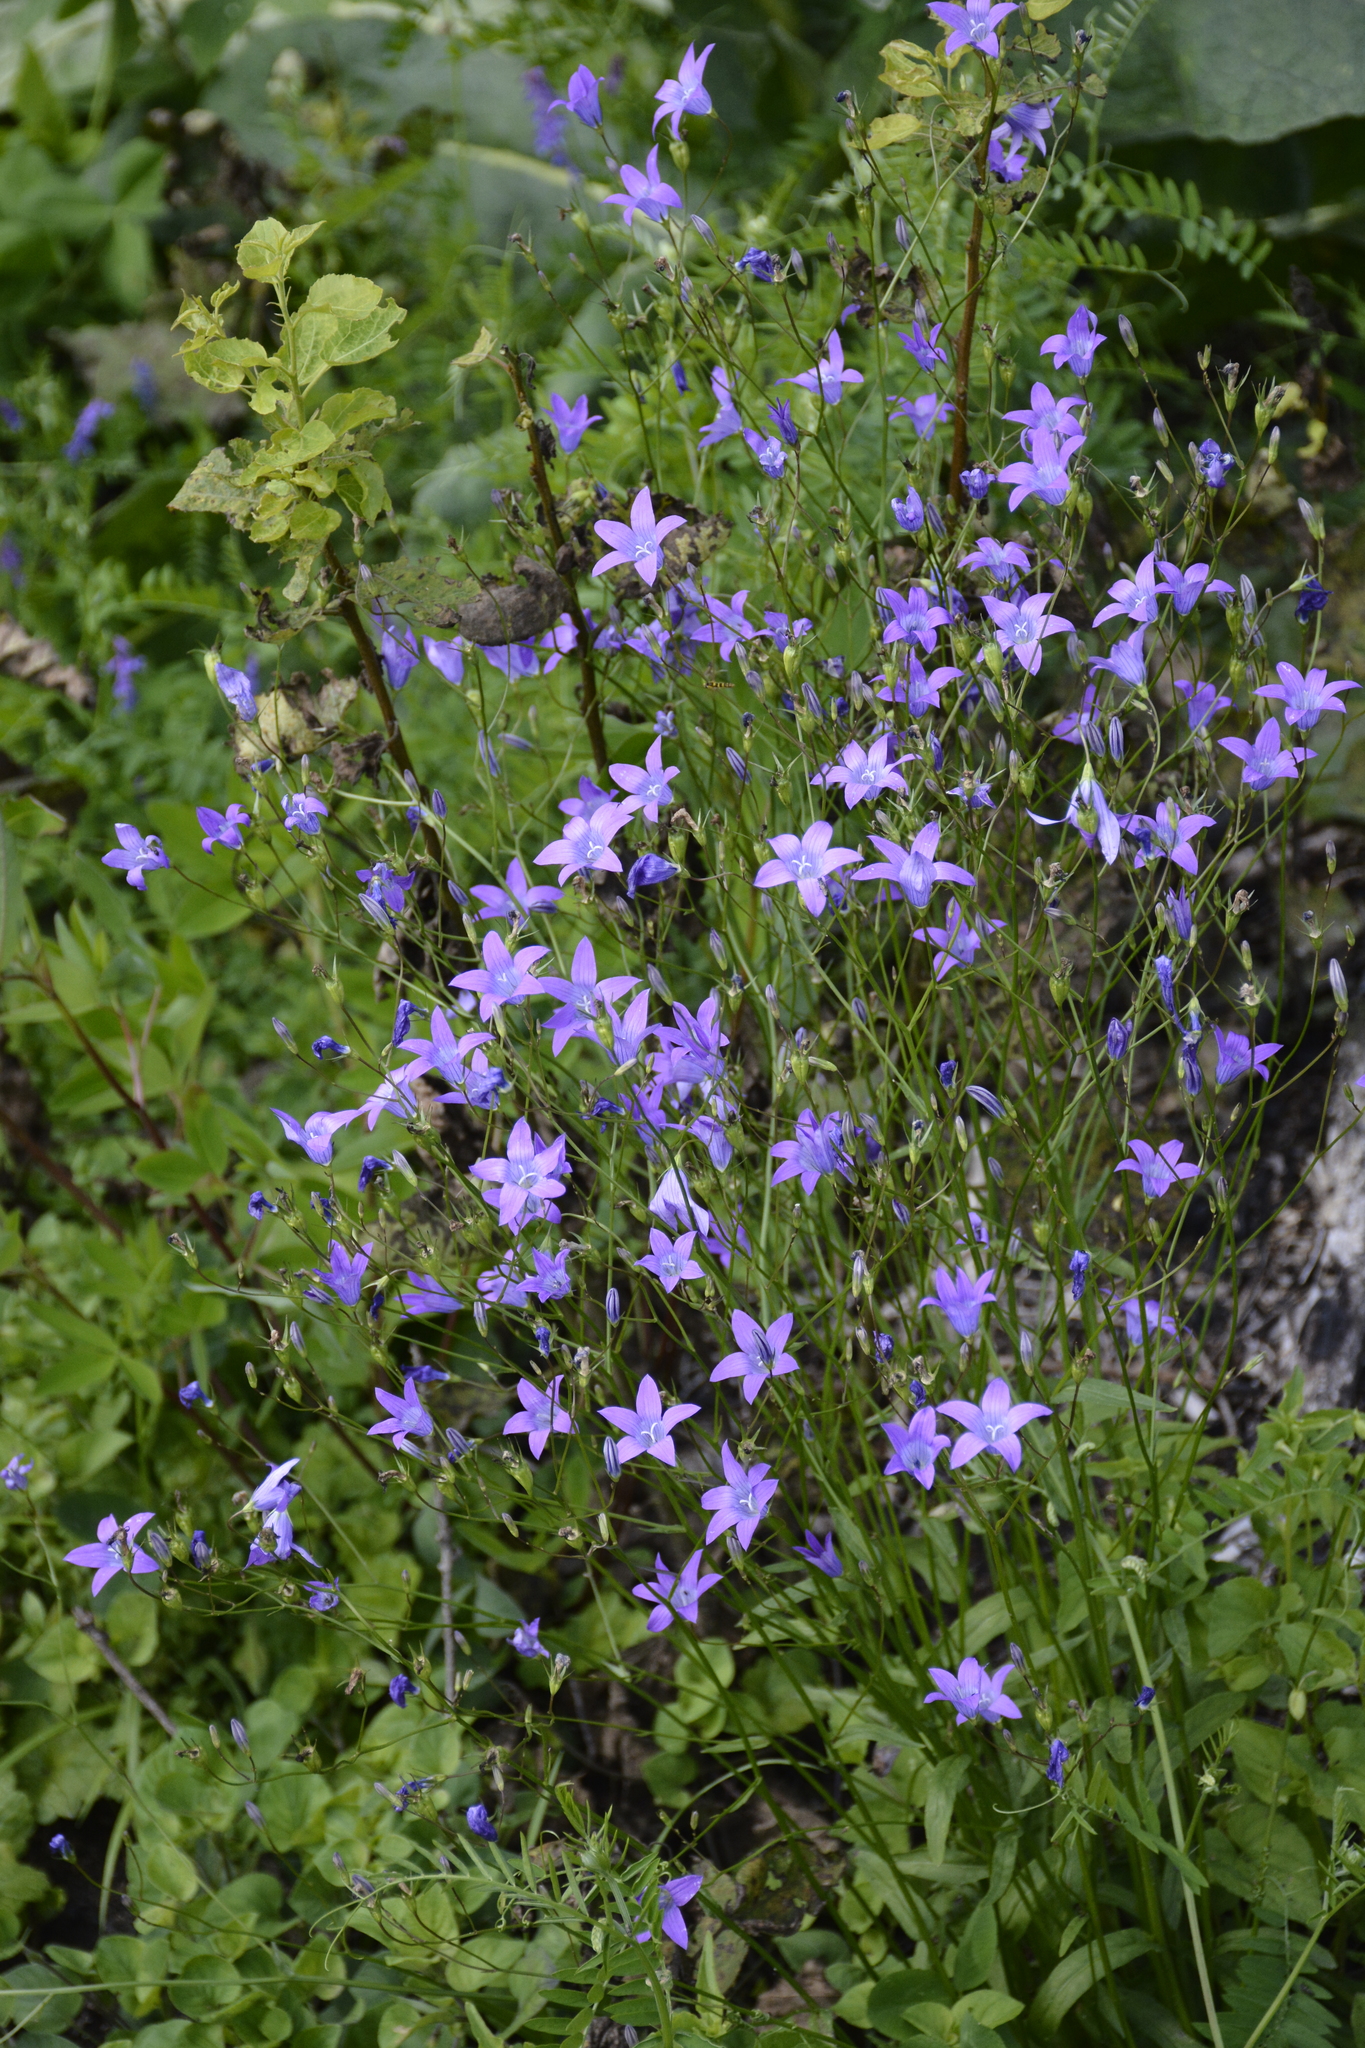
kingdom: Plantae
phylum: Tracheophyta
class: Magnoliopsida
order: Asterales
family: Campanulaceae
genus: Campanula
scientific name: Campanula patula
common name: Spreading bellflower
